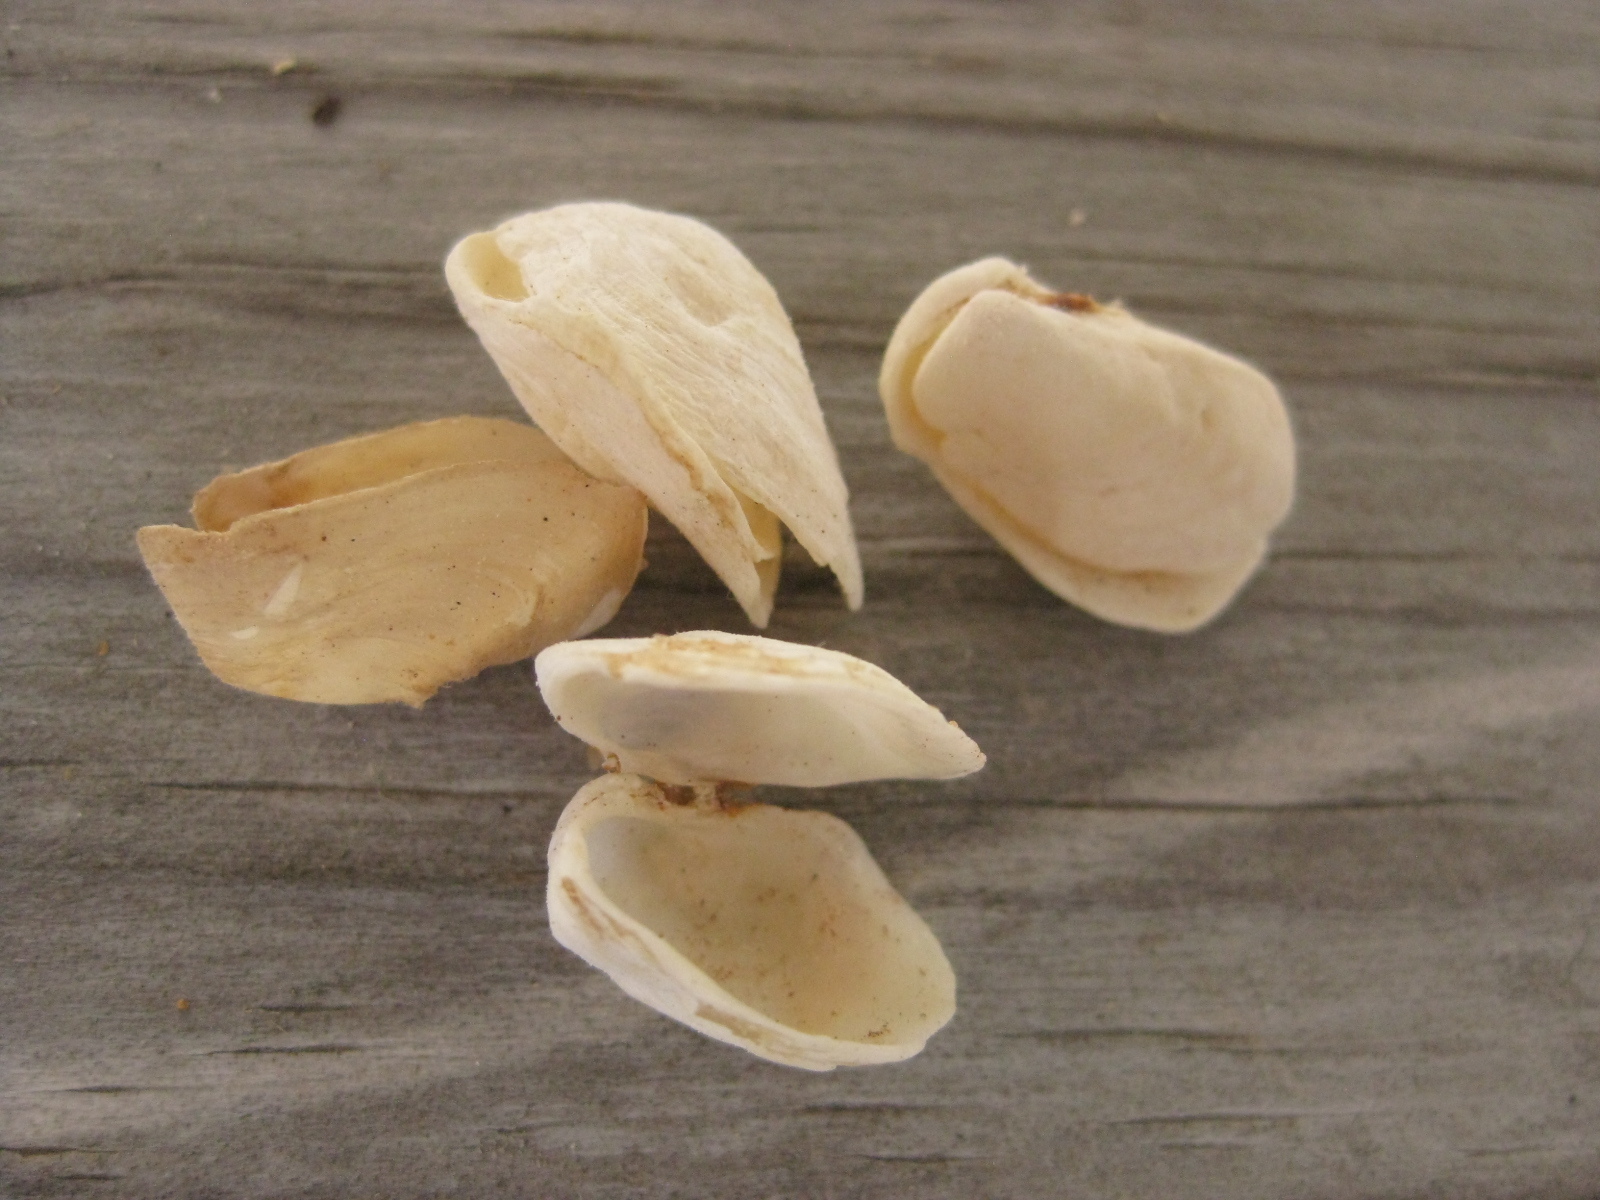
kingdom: Animalia
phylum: Mollusca
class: Bivalvia
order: Adapedonta
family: Hiatellidae
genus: Hiatella
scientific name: Hiatella arctica
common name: Arctic hiatella
